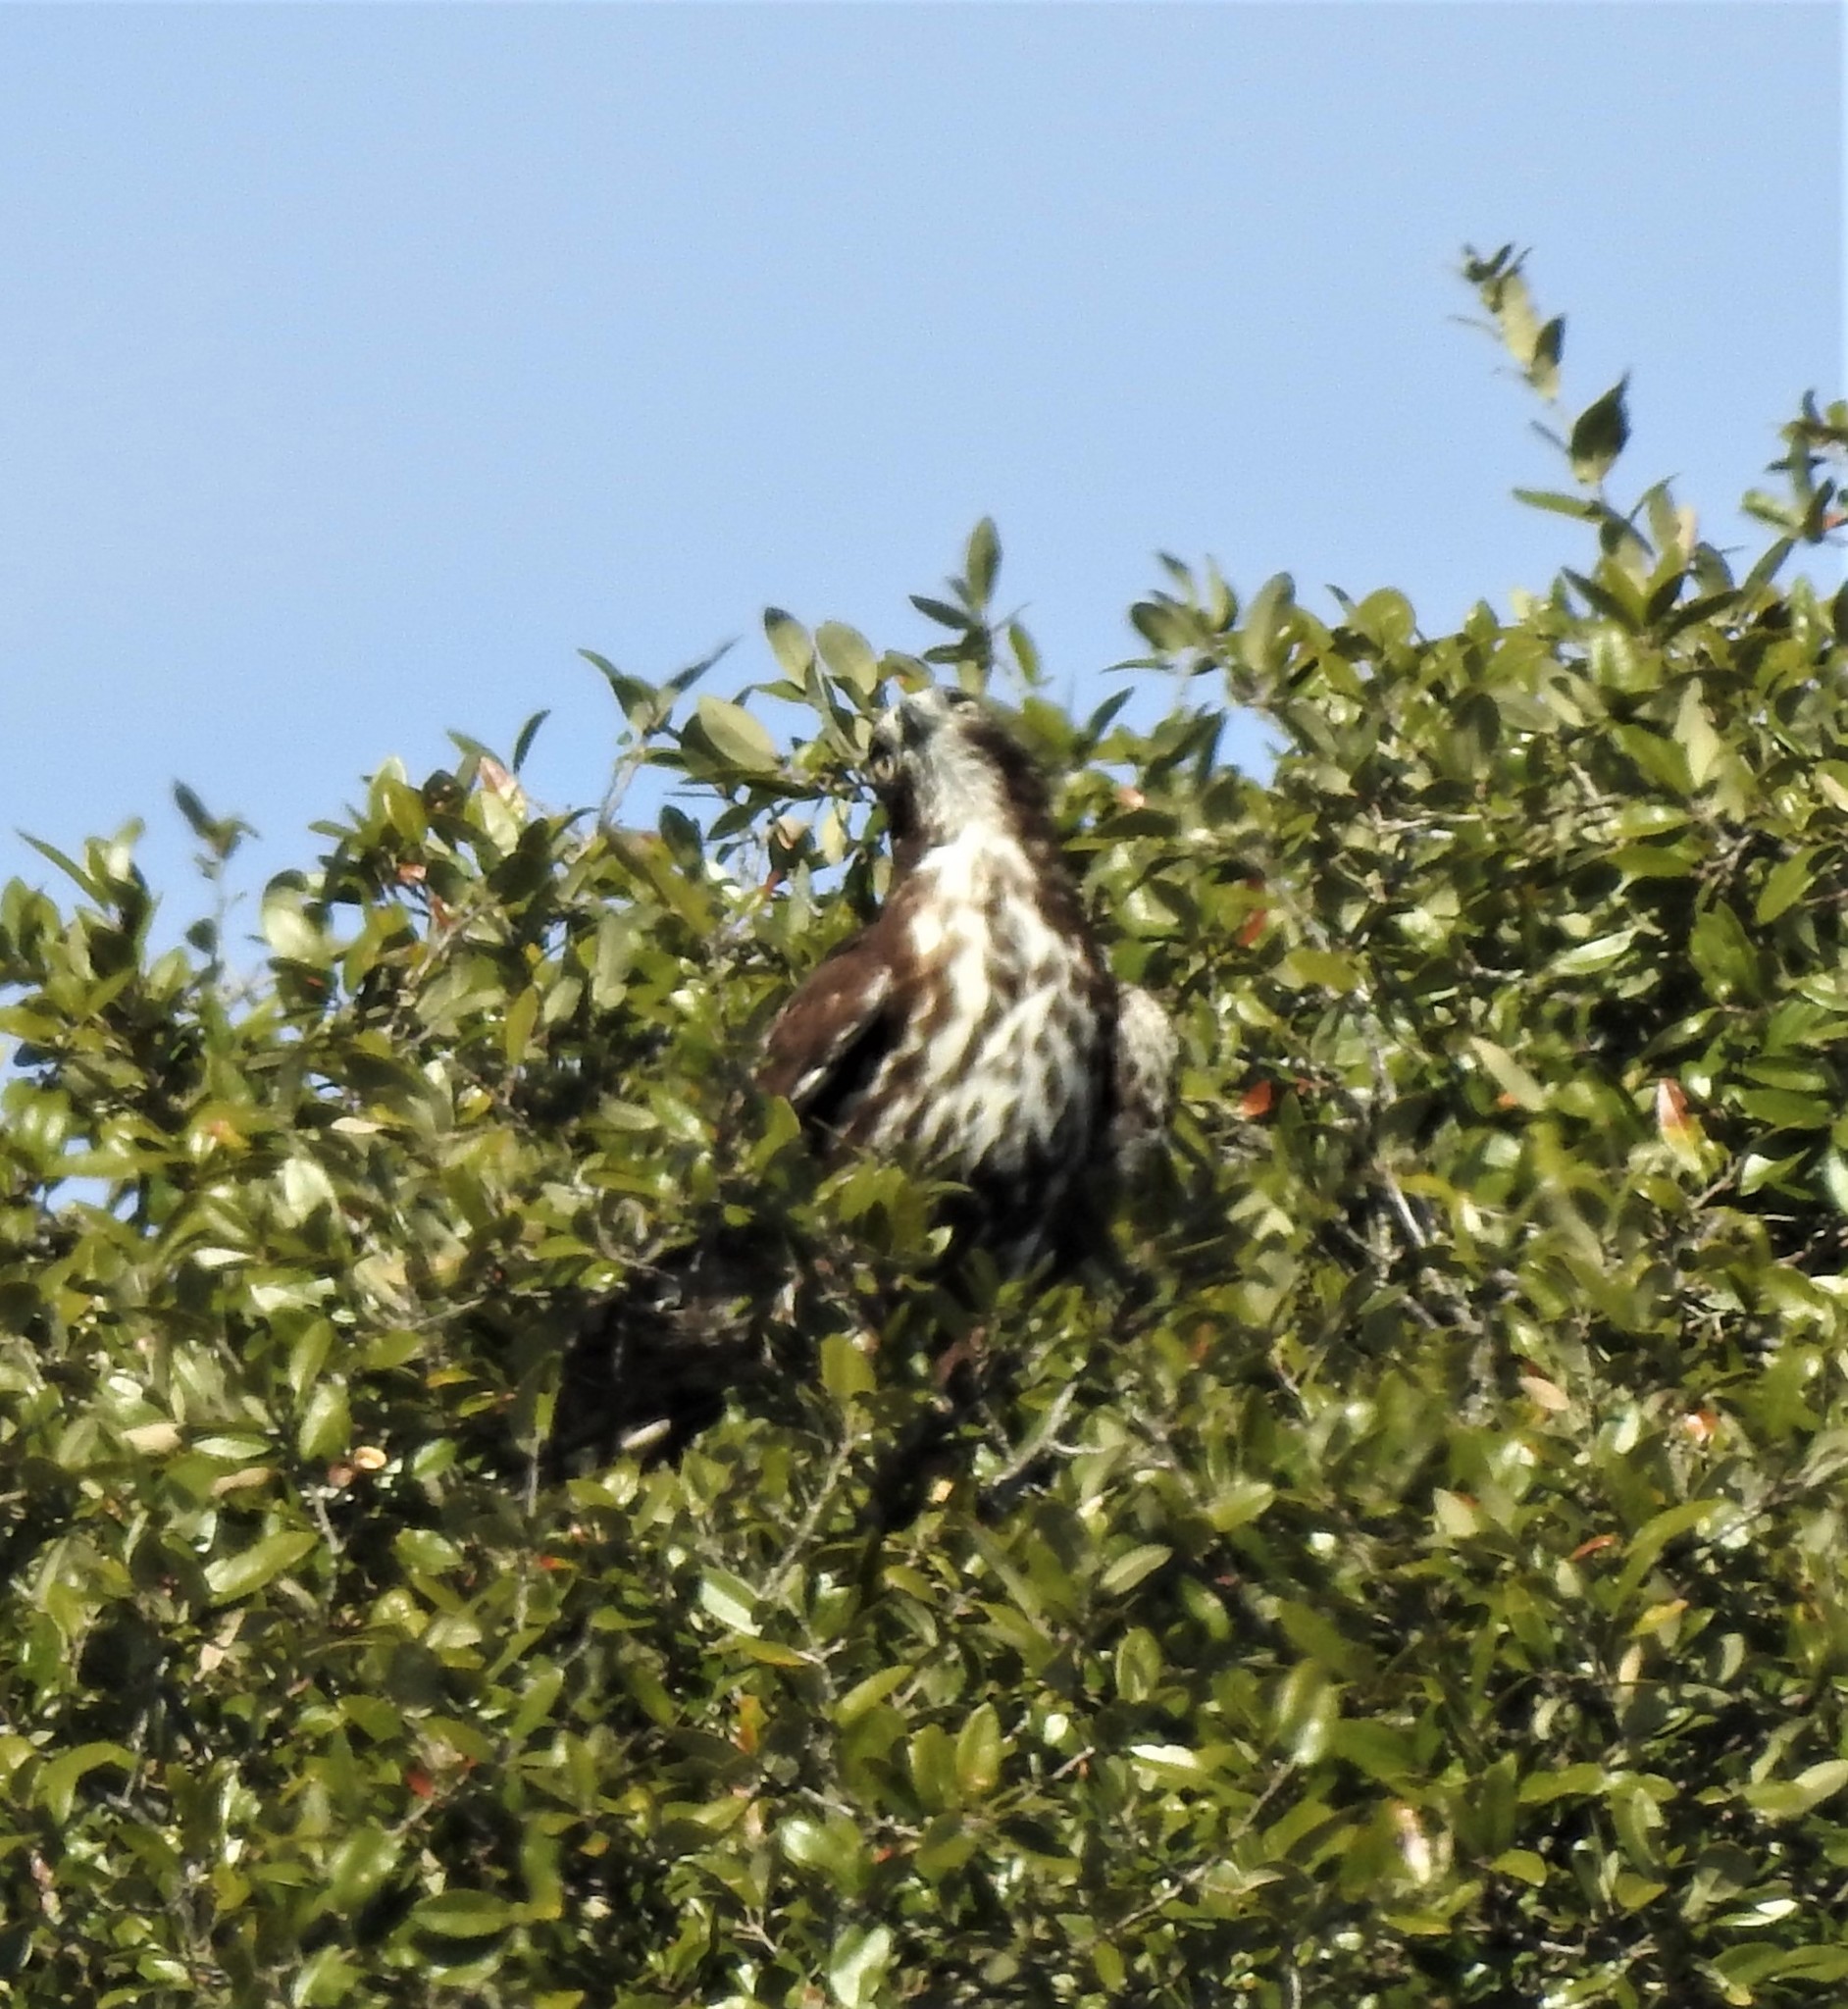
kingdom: Animalia
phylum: Chordata
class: Aves
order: Accipitriformes
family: Accipitridae
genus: Buteo
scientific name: Buteo jamaicensis
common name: Red-tailed hawk
